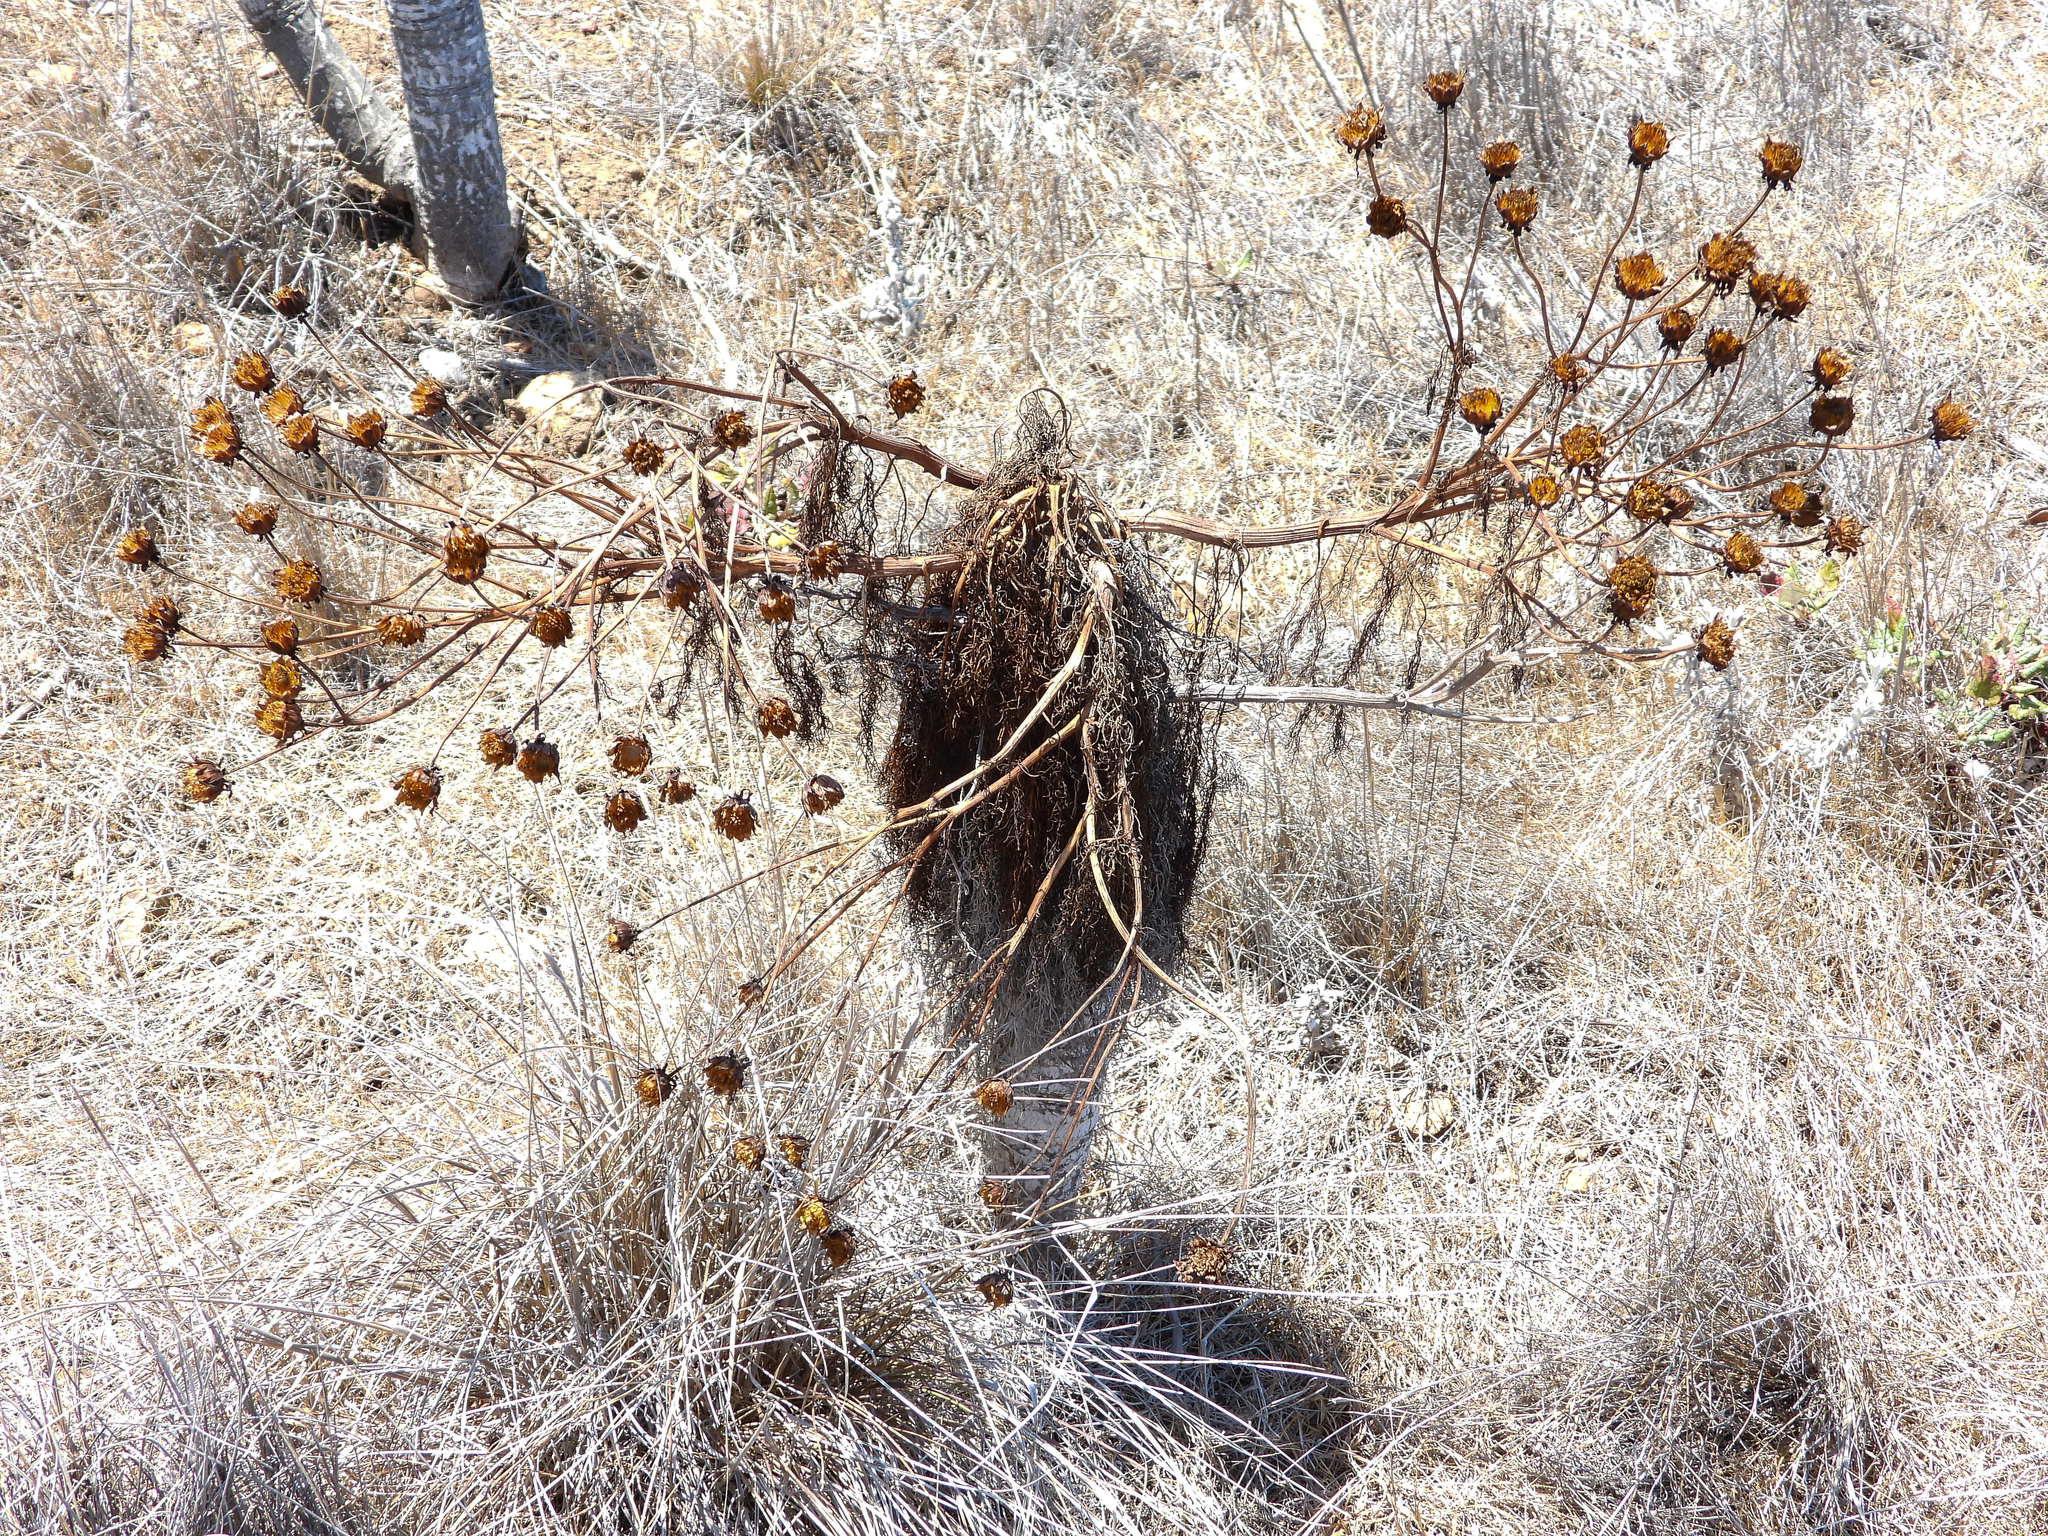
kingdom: Plantae
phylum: Tracheophyta
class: Magnoliopsida
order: Asterales
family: Asteraceae
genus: Coreopsis
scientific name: Coreopsis gigantea
